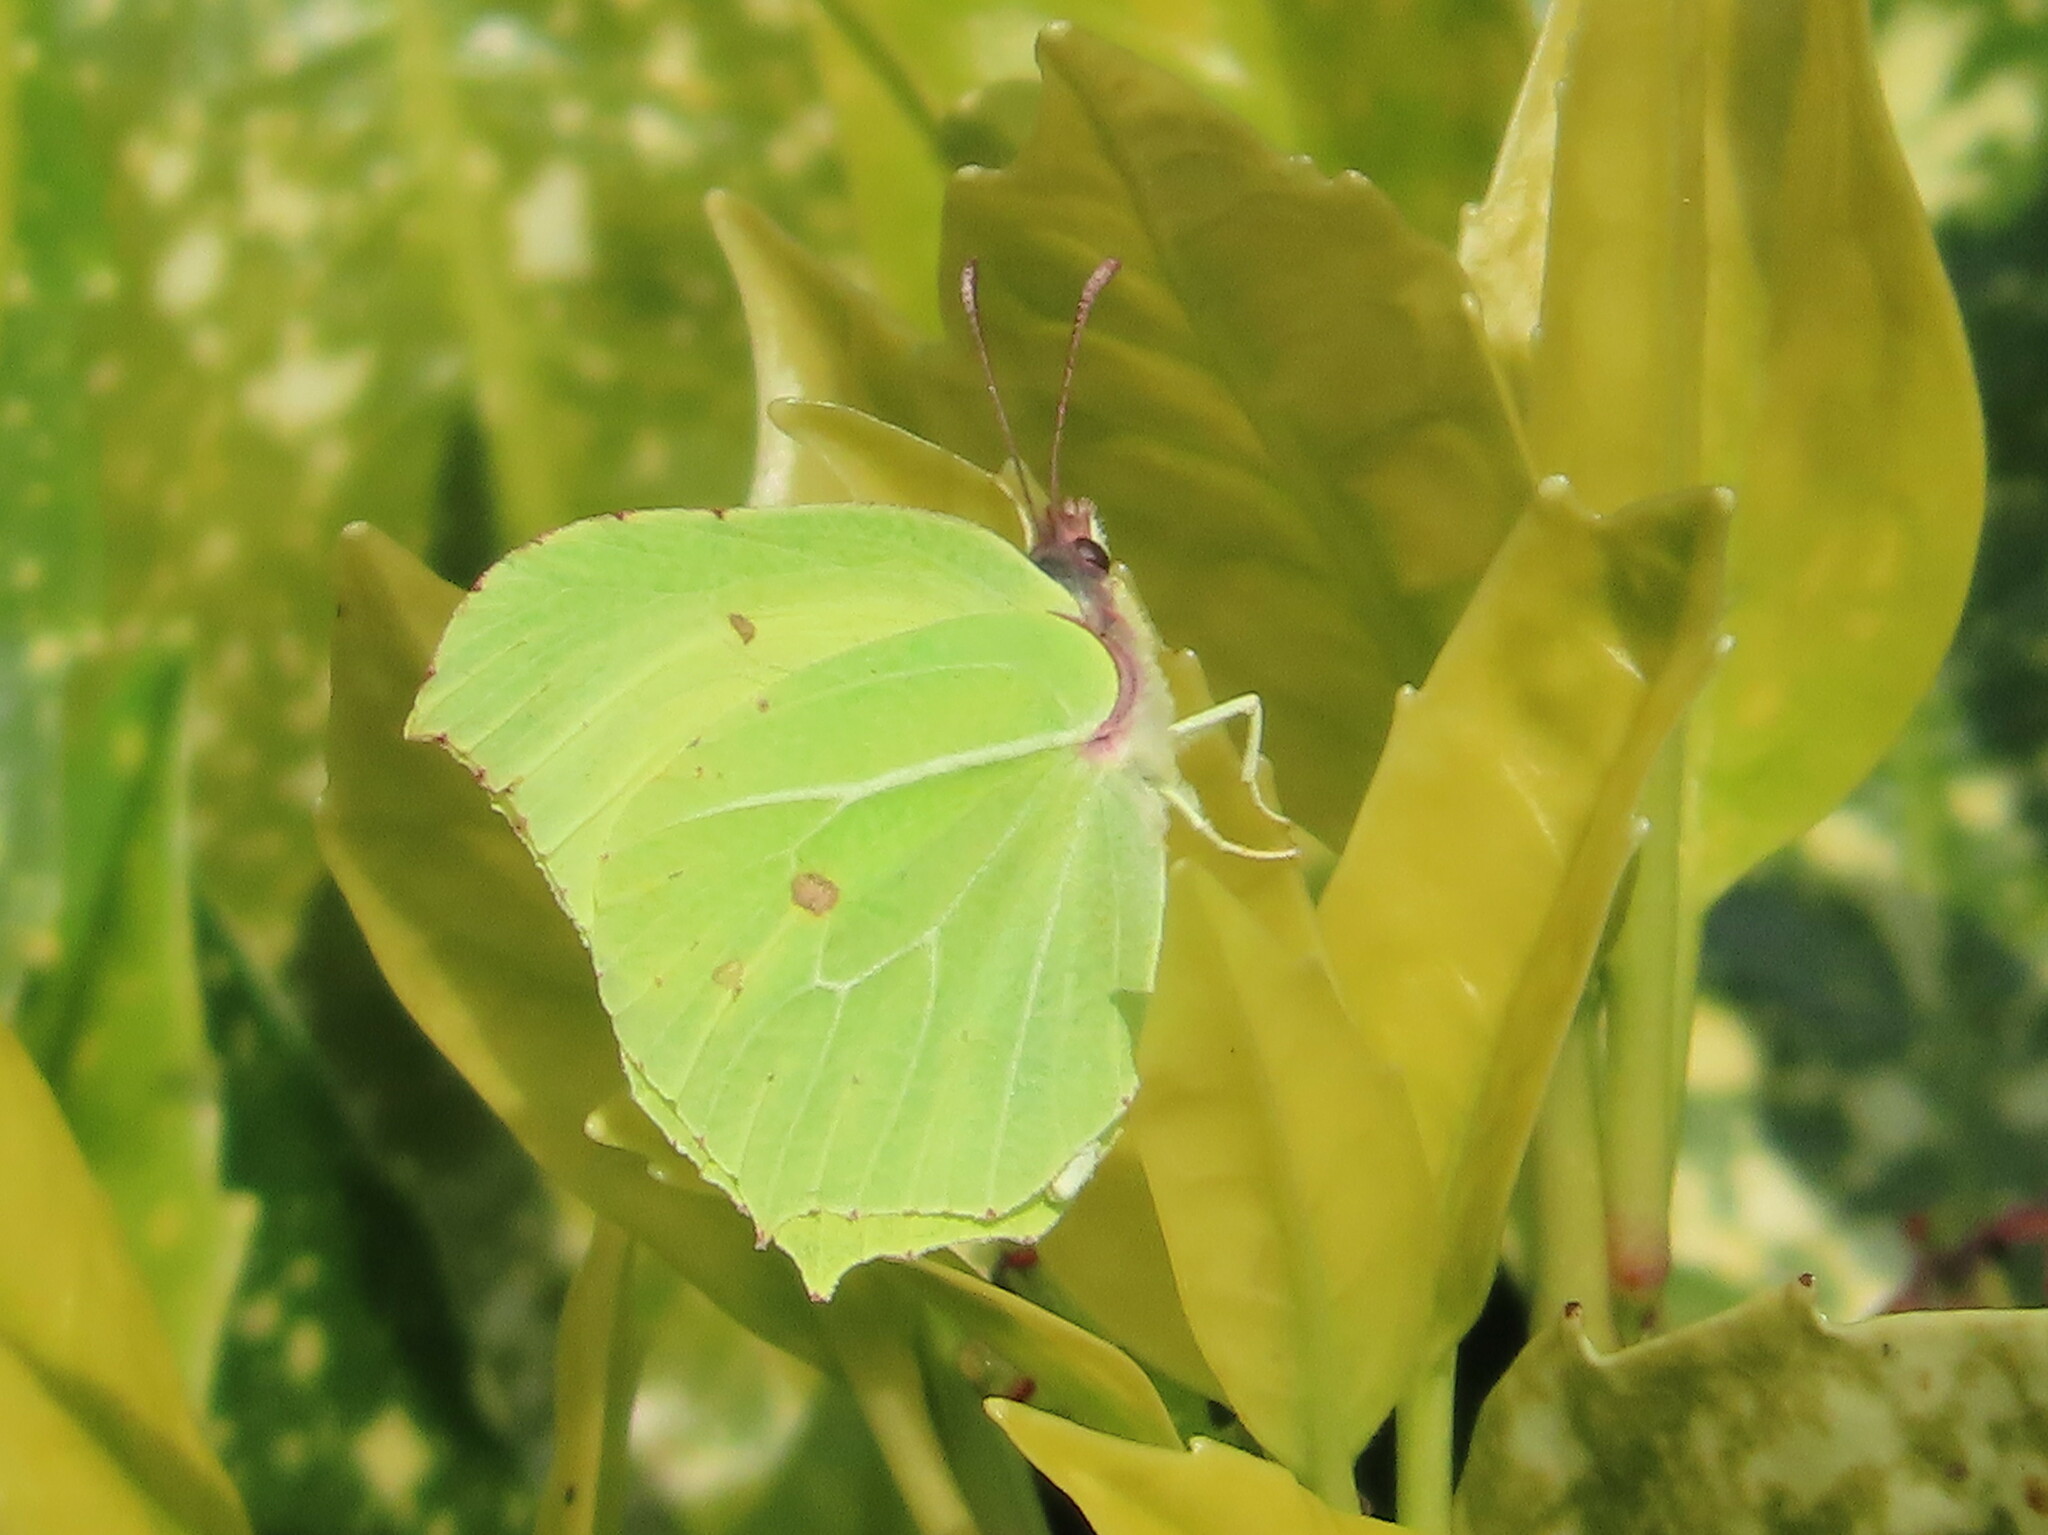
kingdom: Animalia
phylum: Arthropoda
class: Insecta
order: Lepidoptera
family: Pieridae
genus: Gonepteryx
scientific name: Gonepteryx rhamni
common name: Brimstone
